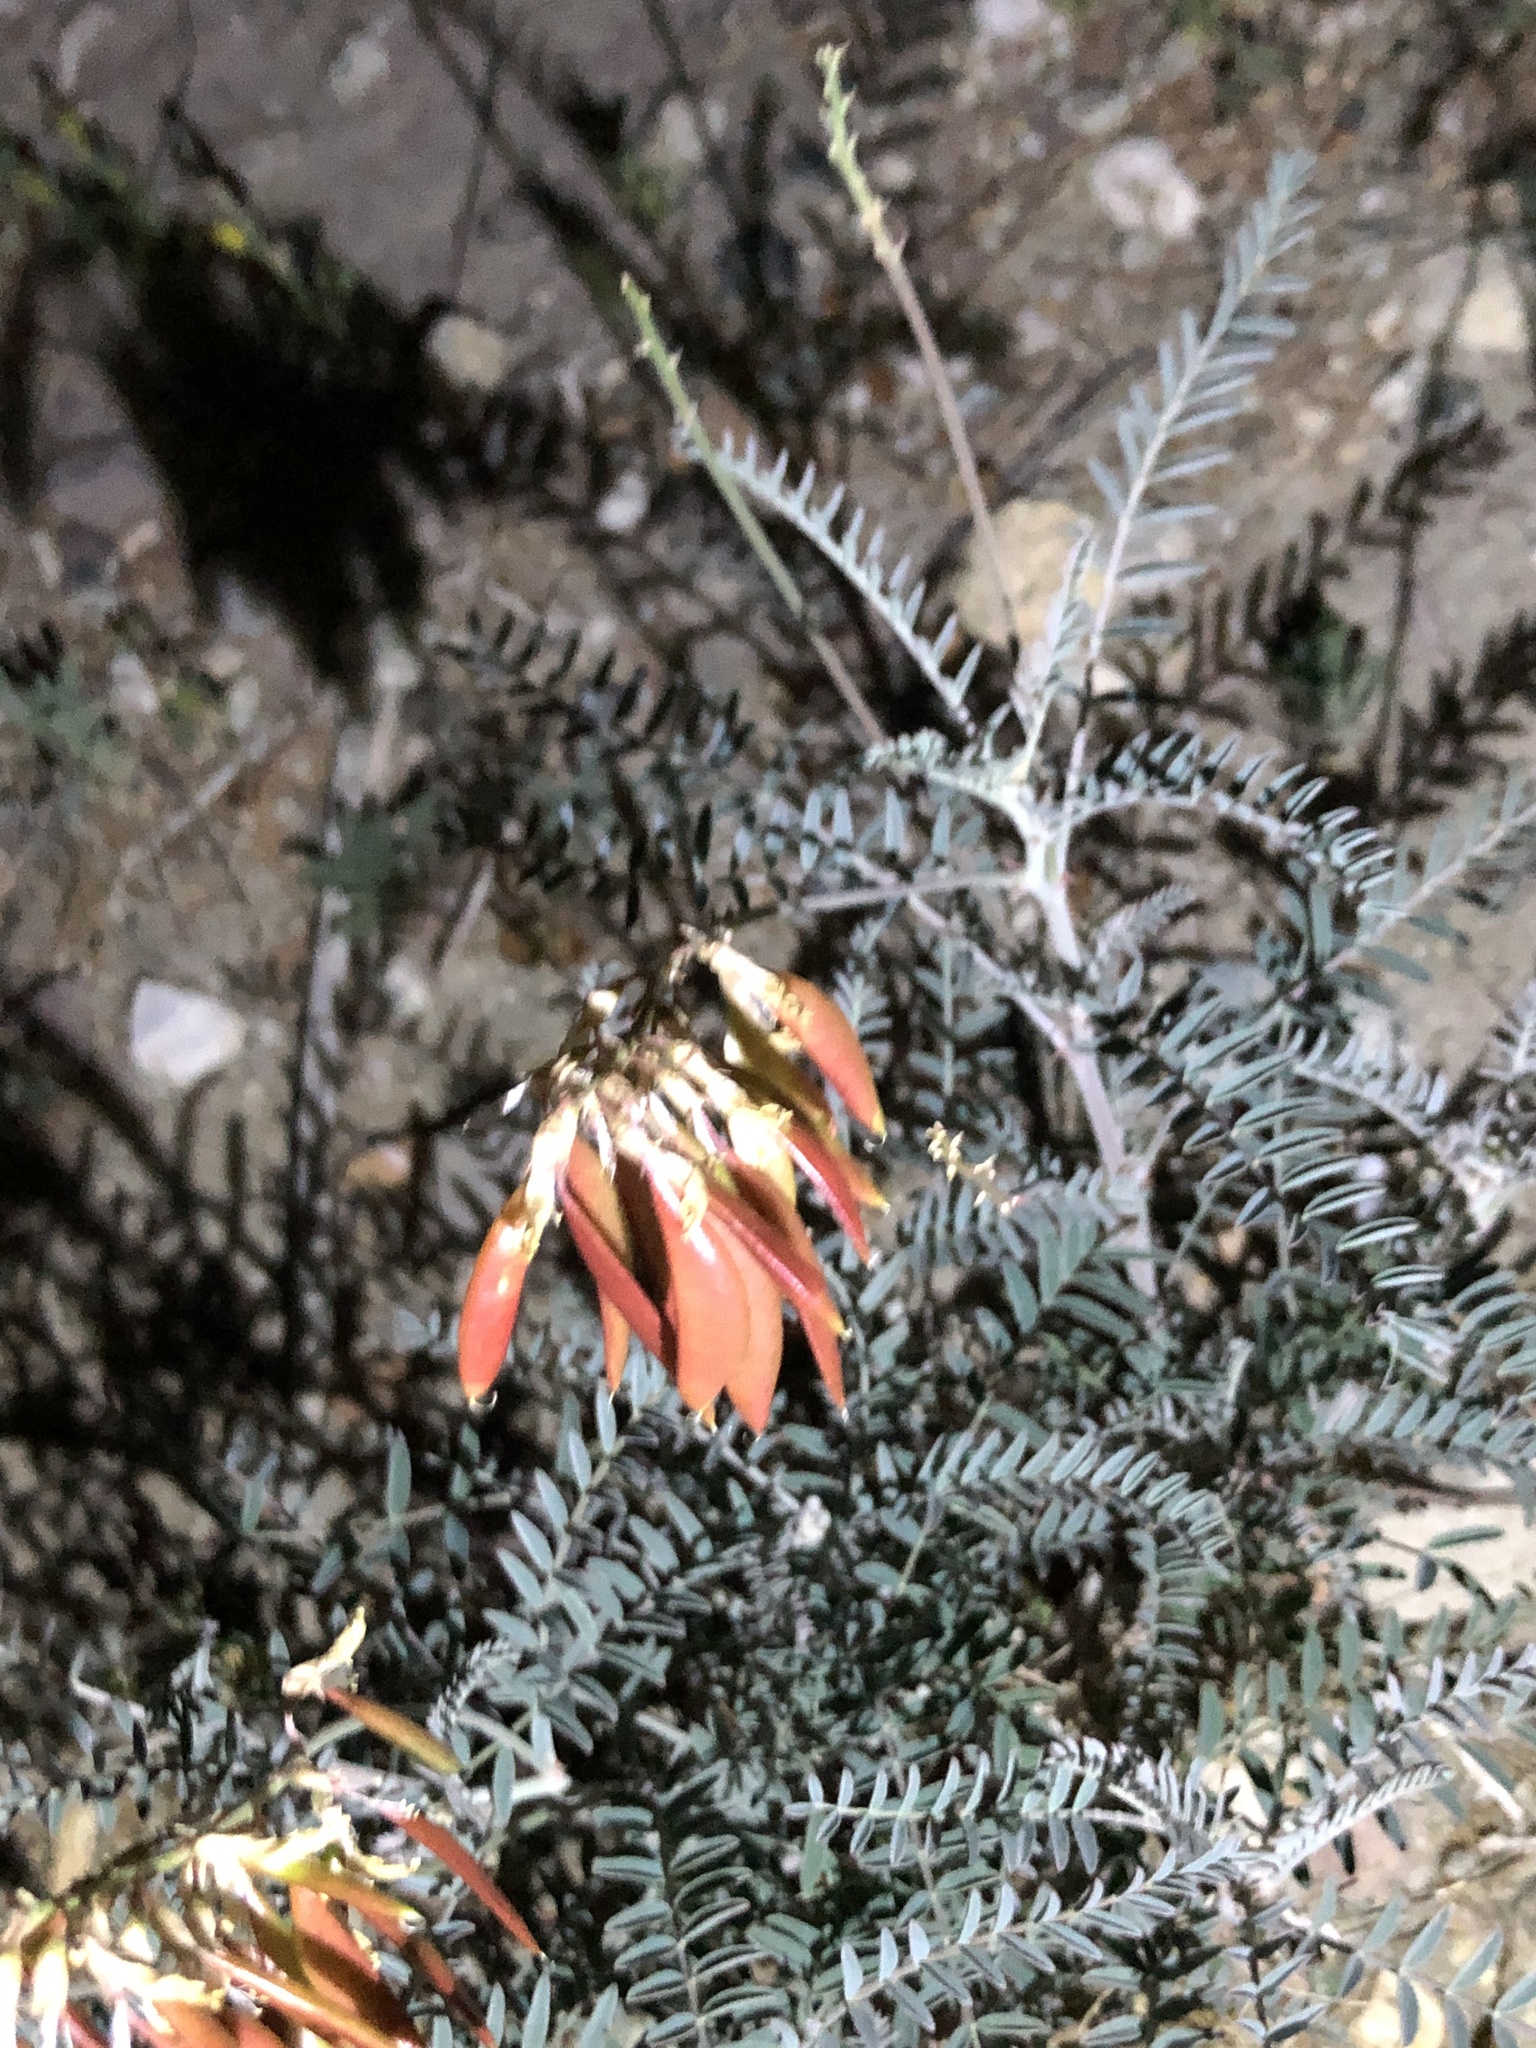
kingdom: Plantae
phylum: Tracheophyta
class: Magnoliopsida
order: Fabales
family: Fabaceae
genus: Astragalus
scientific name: Astragalus trichopodus
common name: Santa barbara milk-vetch
